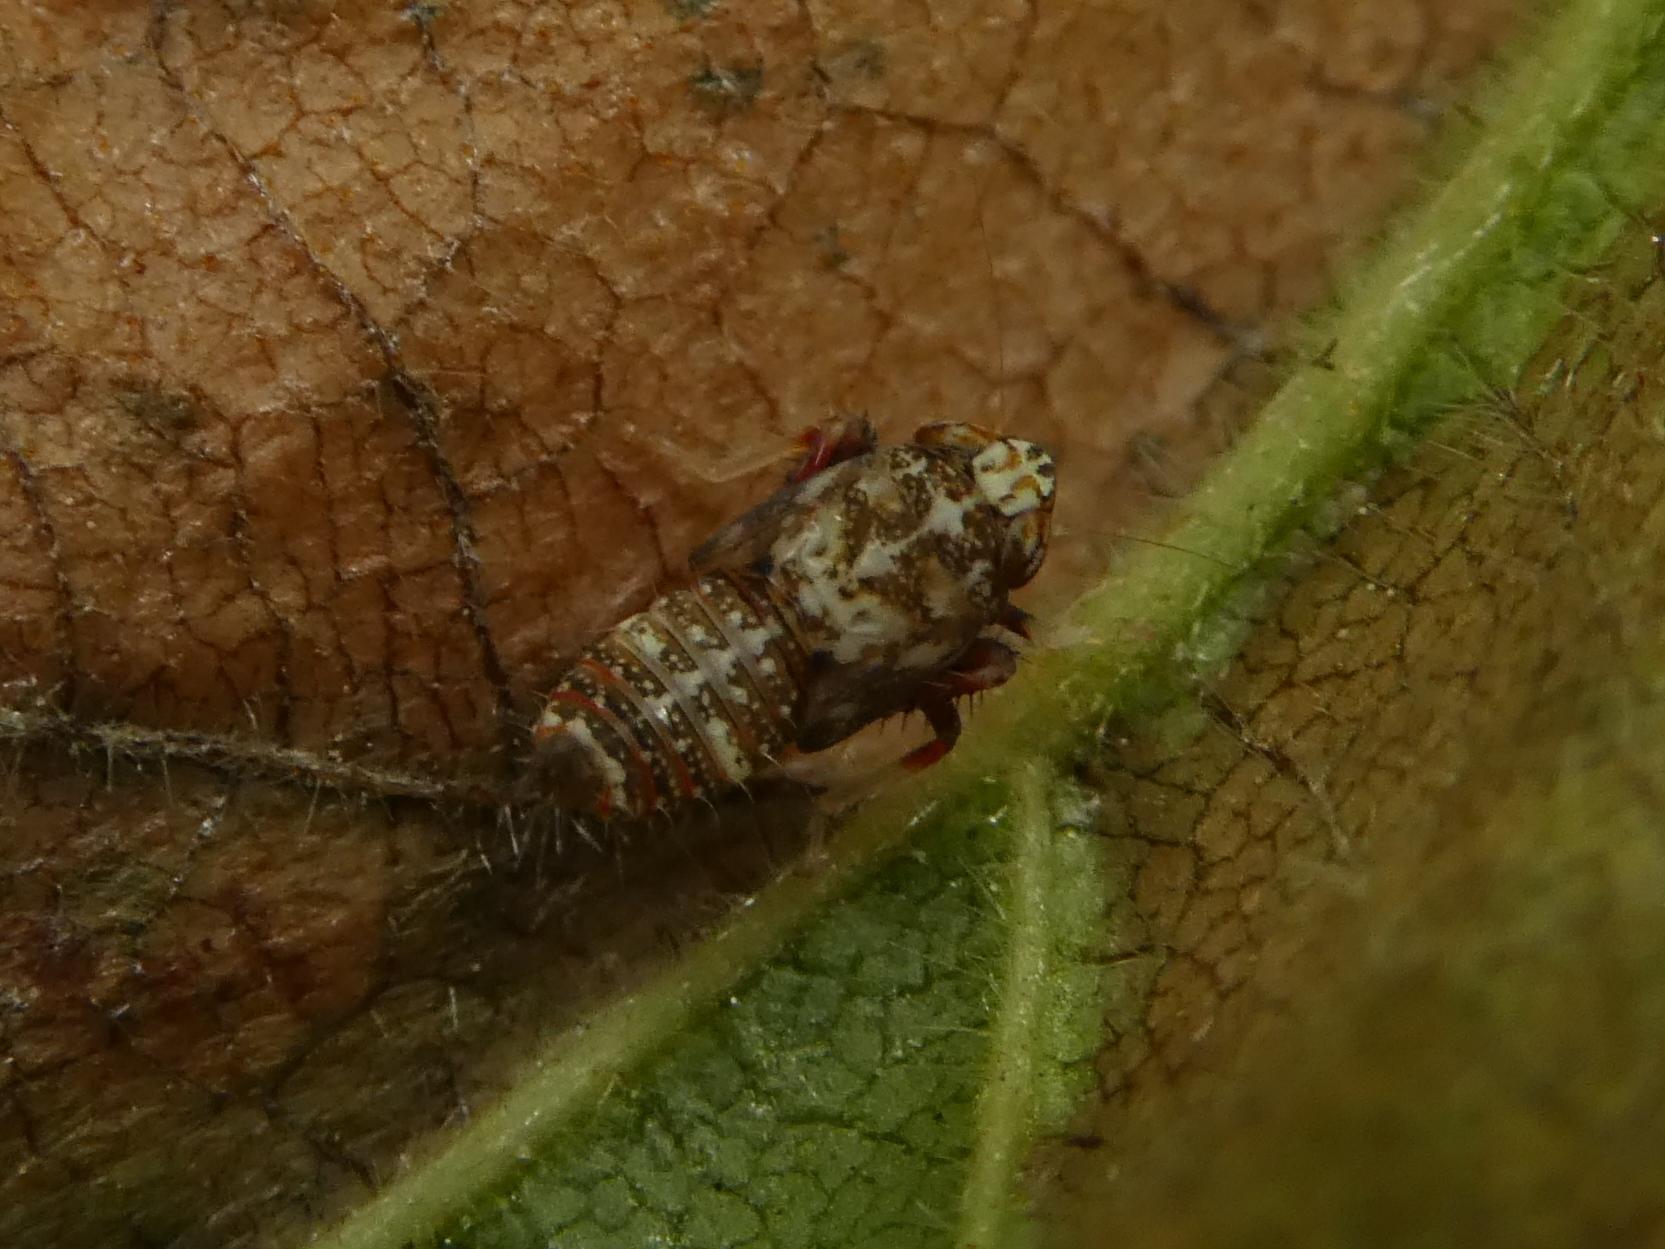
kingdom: Animalia
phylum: Arthropoda
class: Insecta
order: Hemiptera
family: Cicadellidae
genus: Orientus
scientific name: Orientus ishidae
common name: Japanese leafhopper
